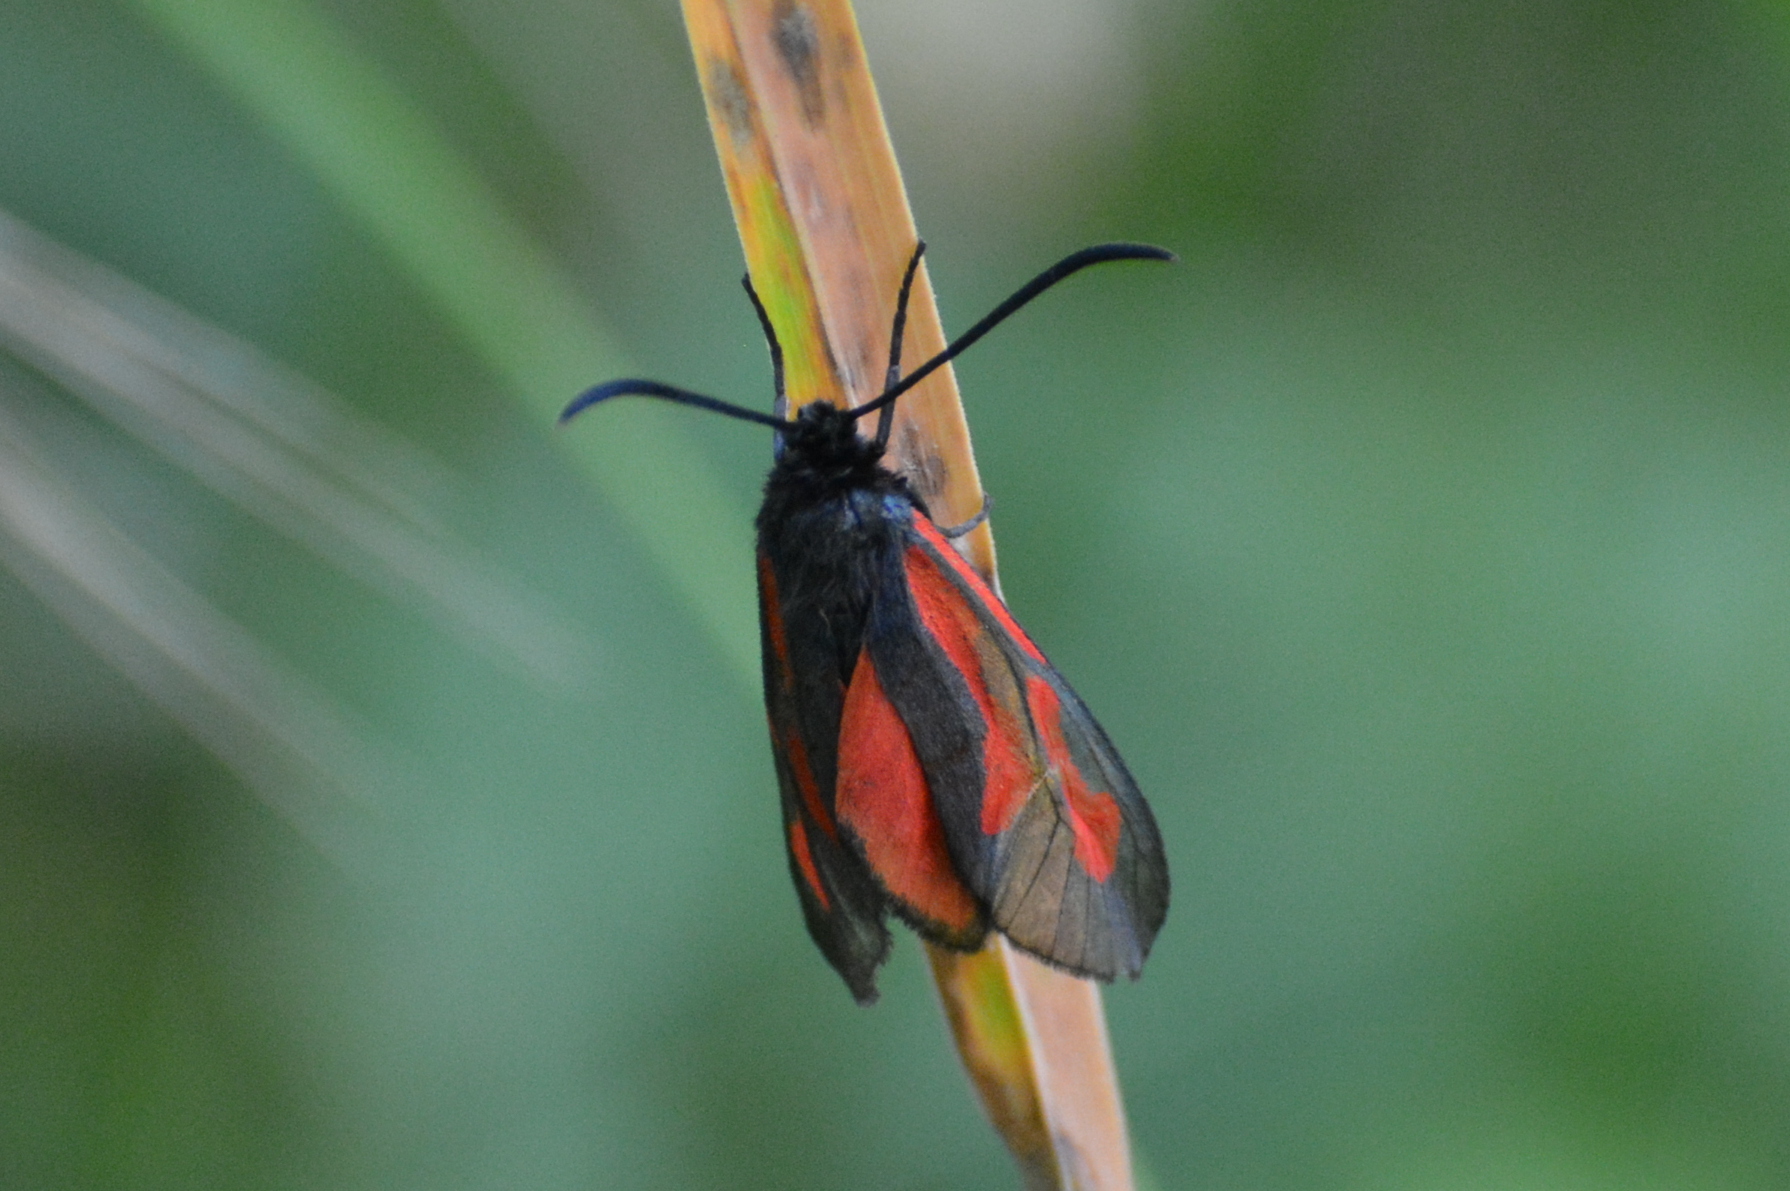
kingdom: Animalia
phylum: Arthropoda
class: Insecta
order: Lepidoptera
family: Zygaenidae
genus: Zygaena
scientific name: Zygaena osterodensis
